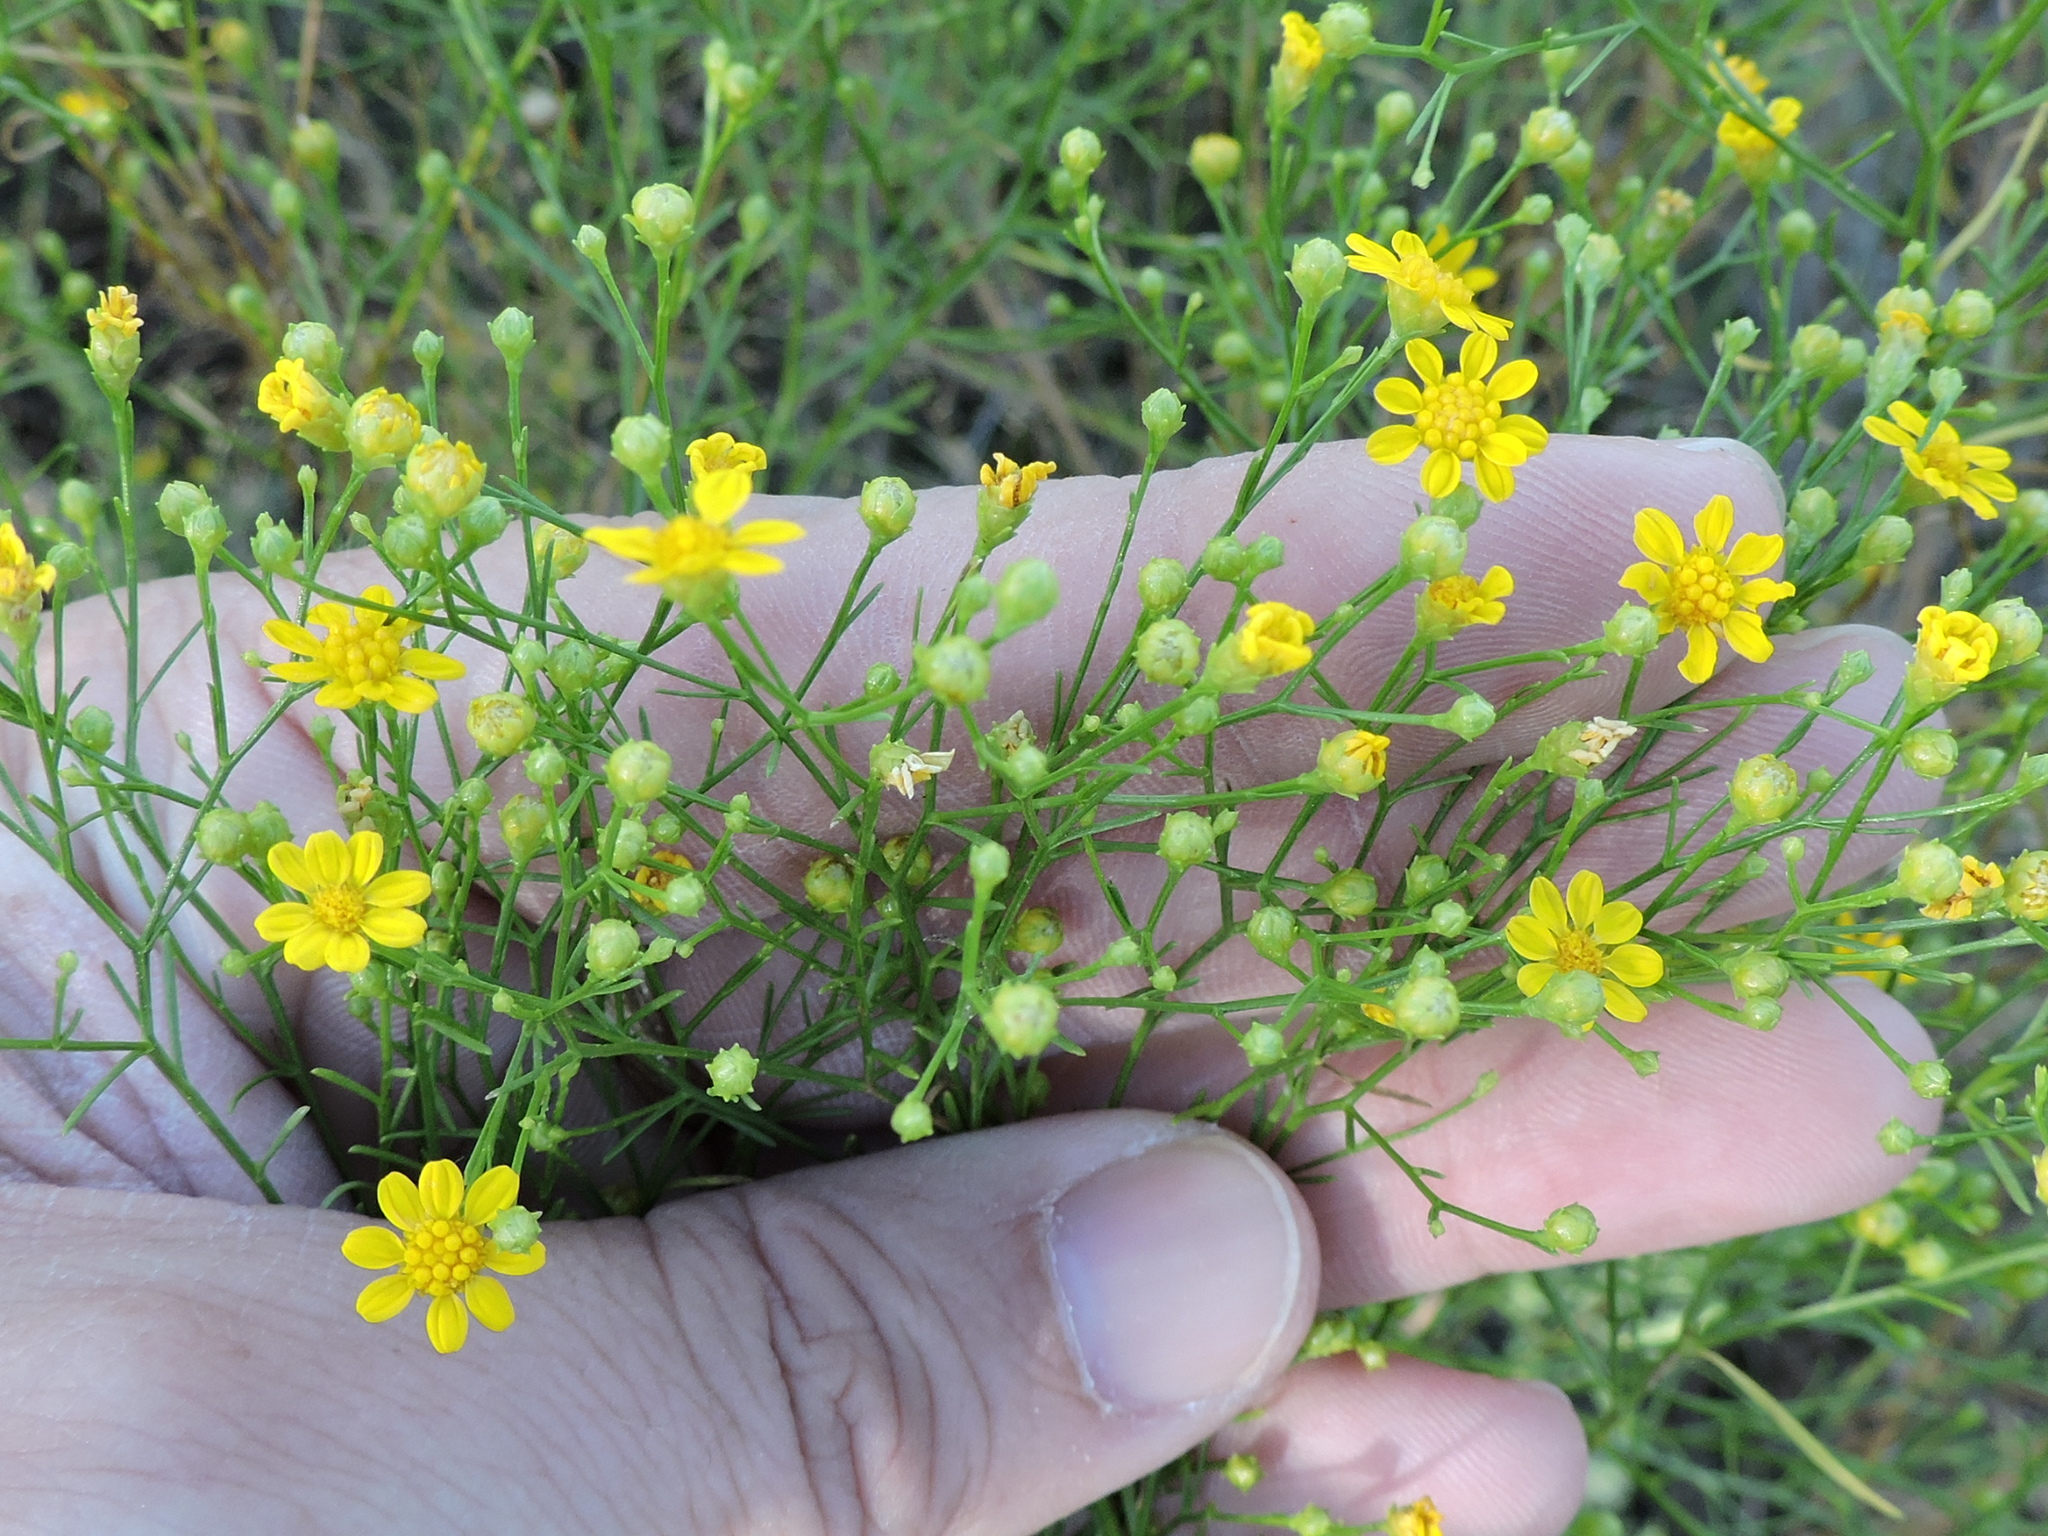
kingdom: Plantae
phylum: Tracheophyta
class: Magnoliopsida
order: Asterales
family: Asteraceae
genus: Amphiachyris
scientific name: Amphiachyris dracunculoides
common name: Broomweed
